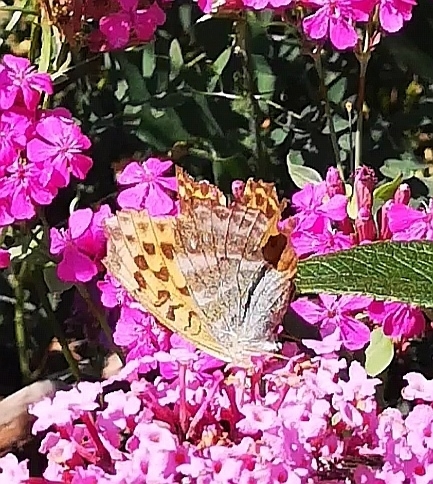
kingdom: Animalia
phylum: Arthropoda
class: Insecta
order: Lepidoptera
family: Nymphalidae
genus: Argynnis
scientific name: Argynnis paphia
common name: Silver-washed fritillary
